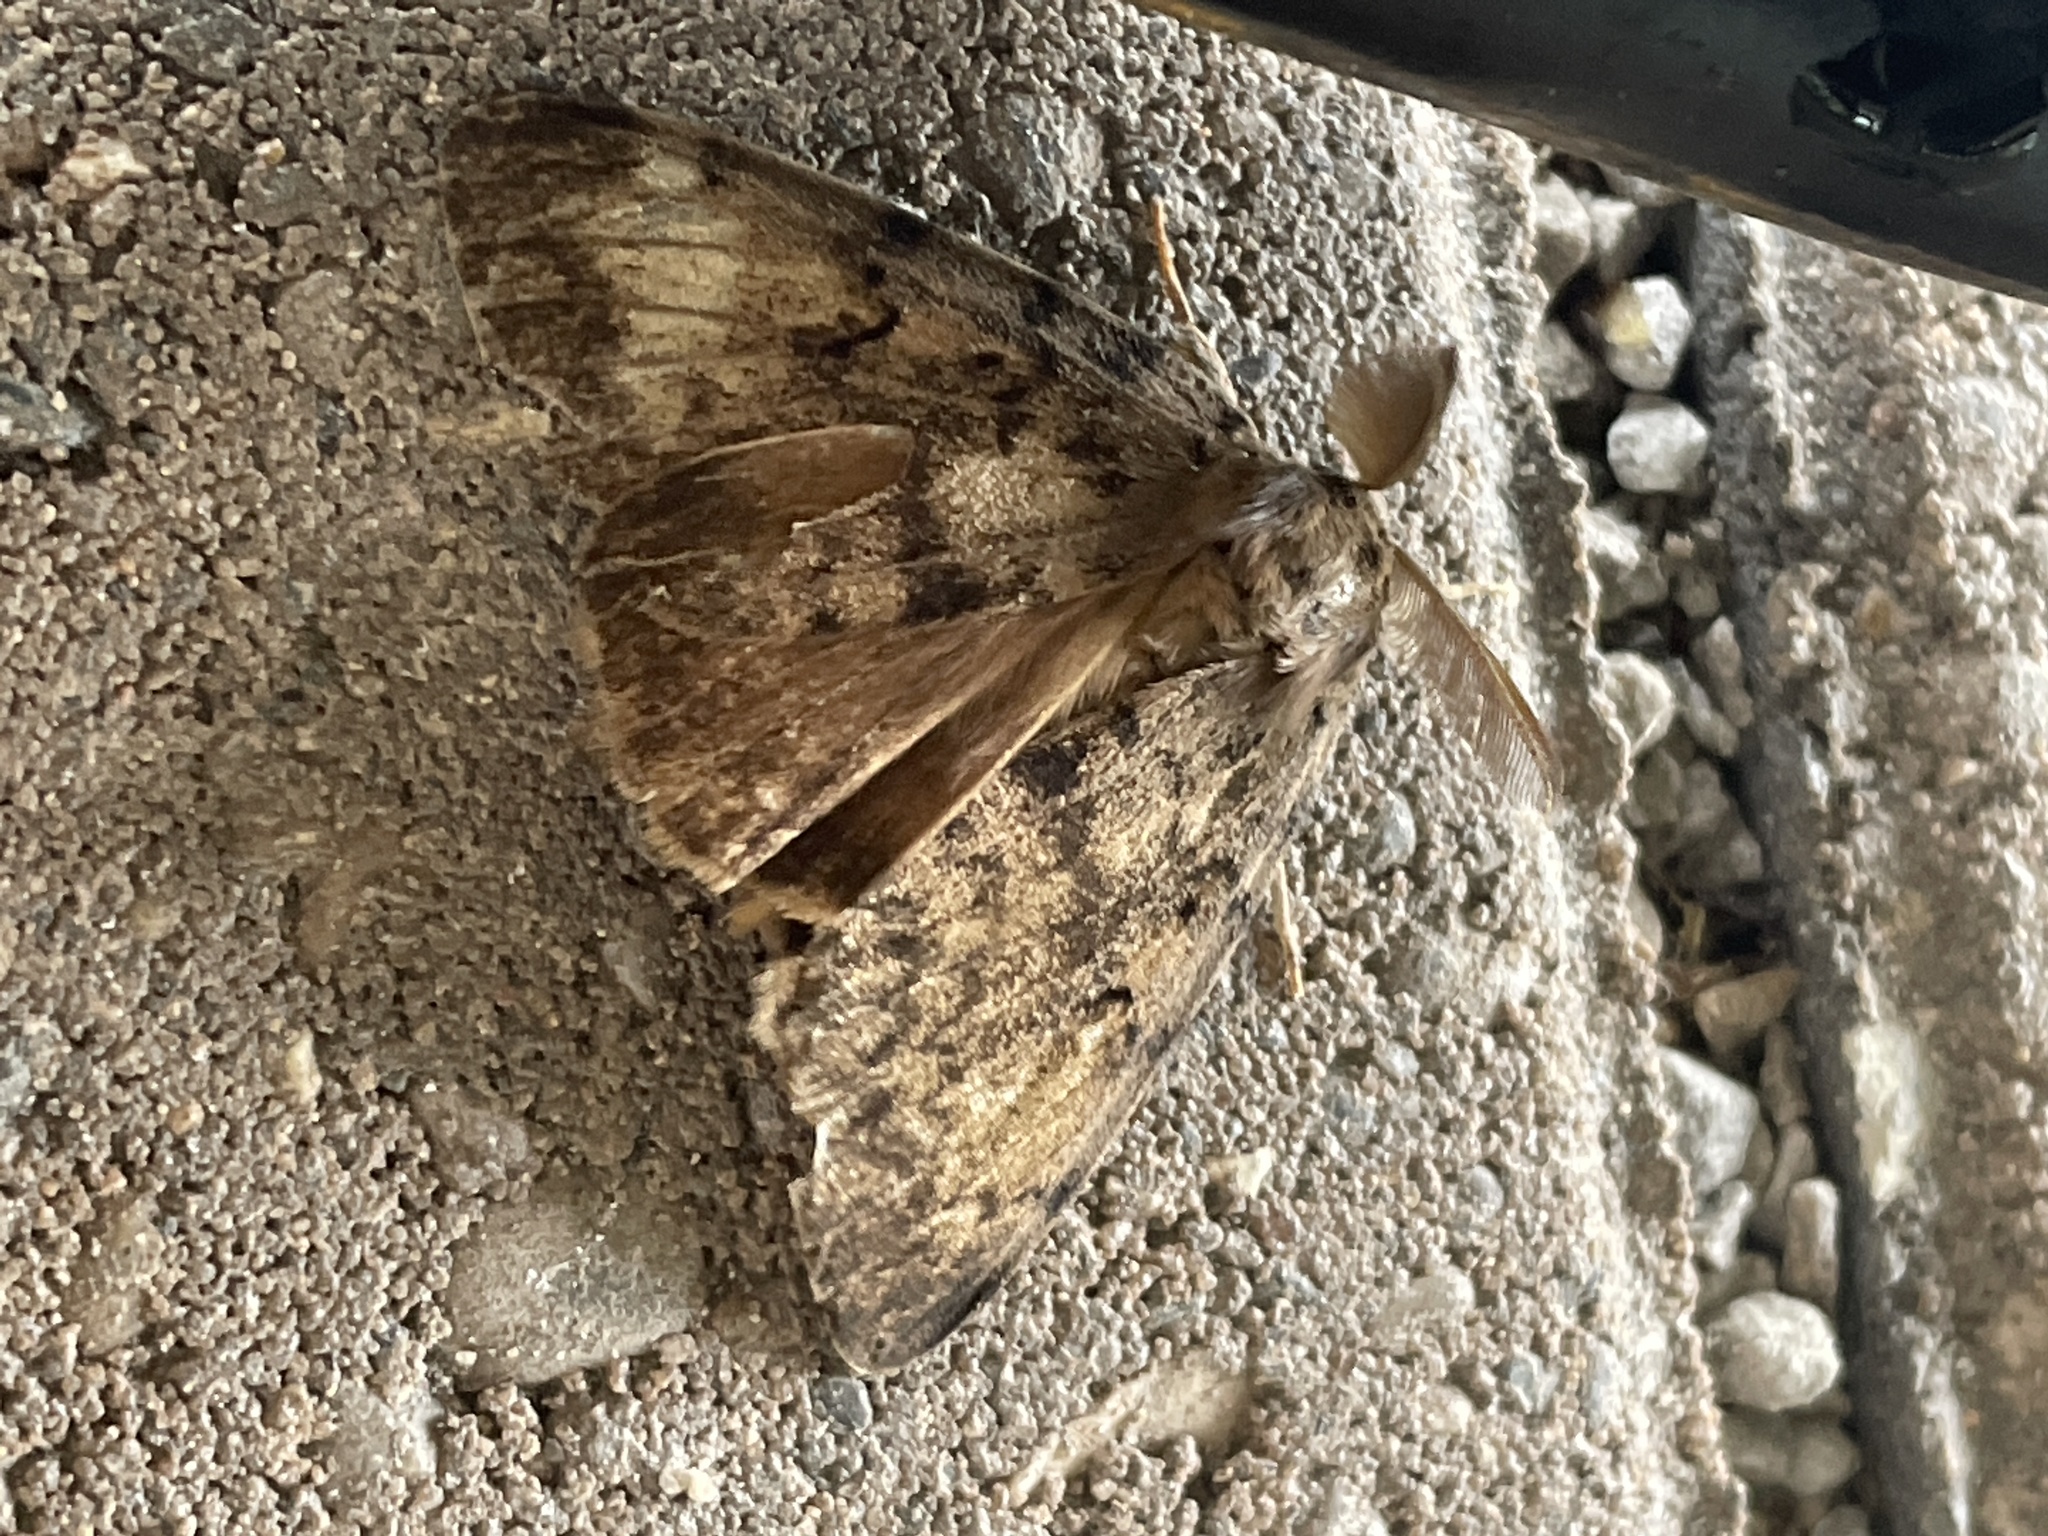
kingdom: Animalia
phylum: Arthropoda
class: Insecta
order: Lepidoptera
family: Erebidae
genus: Lymantria
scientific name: Lymantria dispar
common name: Gypsy moth
